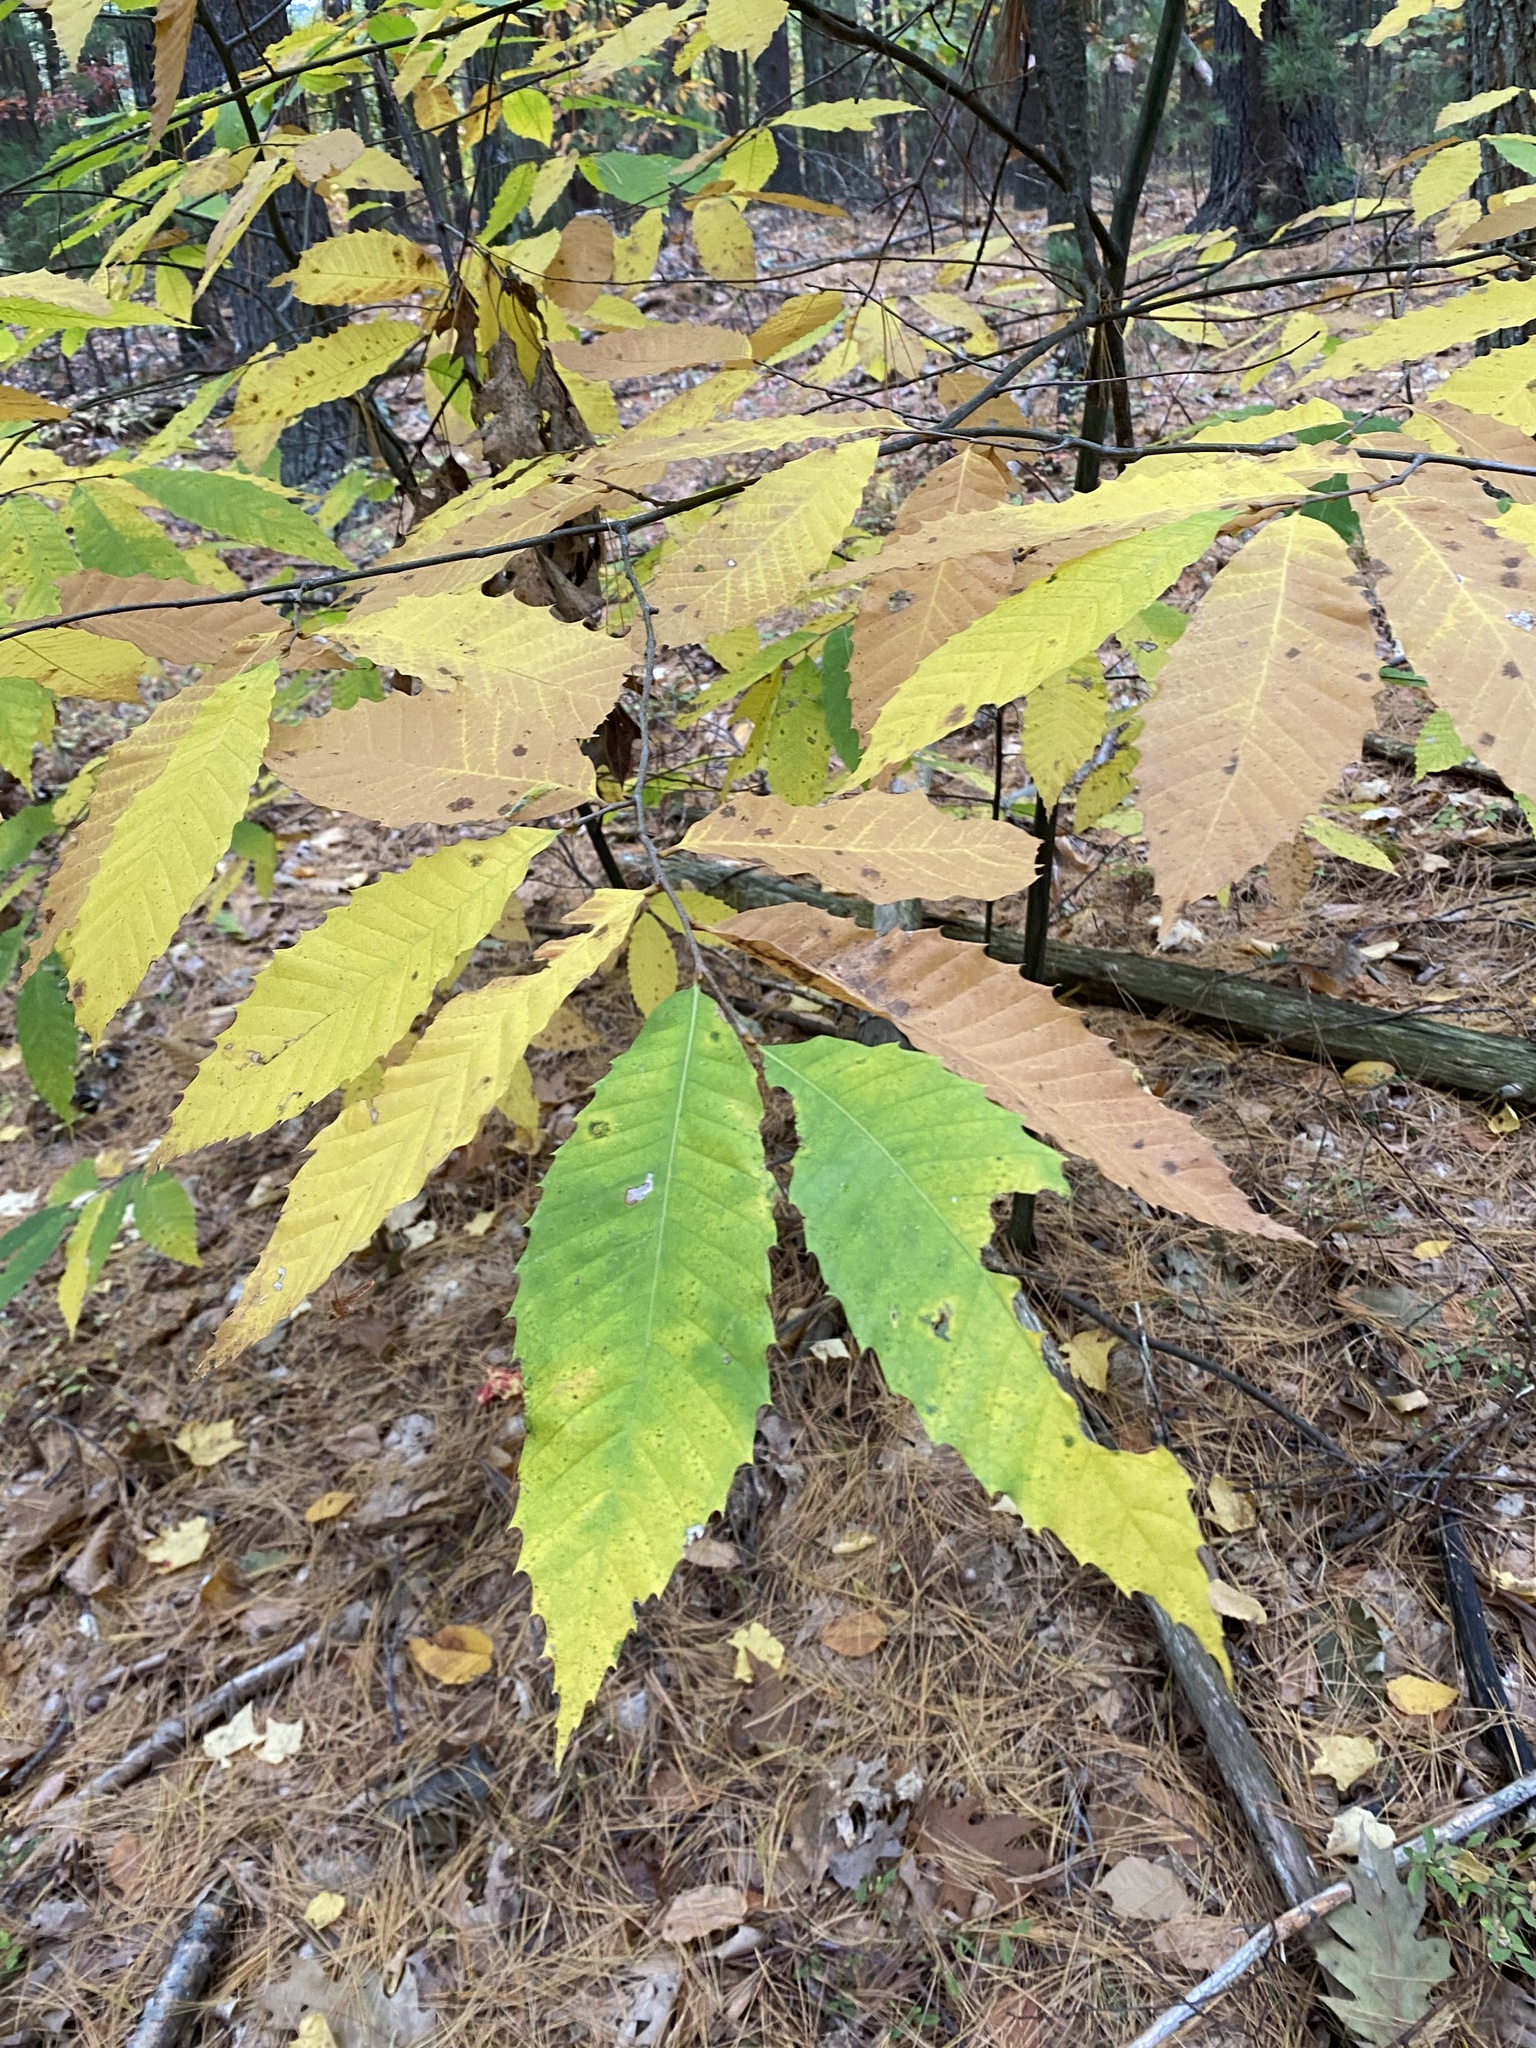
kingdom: Plantae
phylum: Tracheophyta
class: Magnoliopsida
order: Fagales
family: Fagaceae
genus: Castanea
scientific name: Castanea dentata
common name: American chestnut
